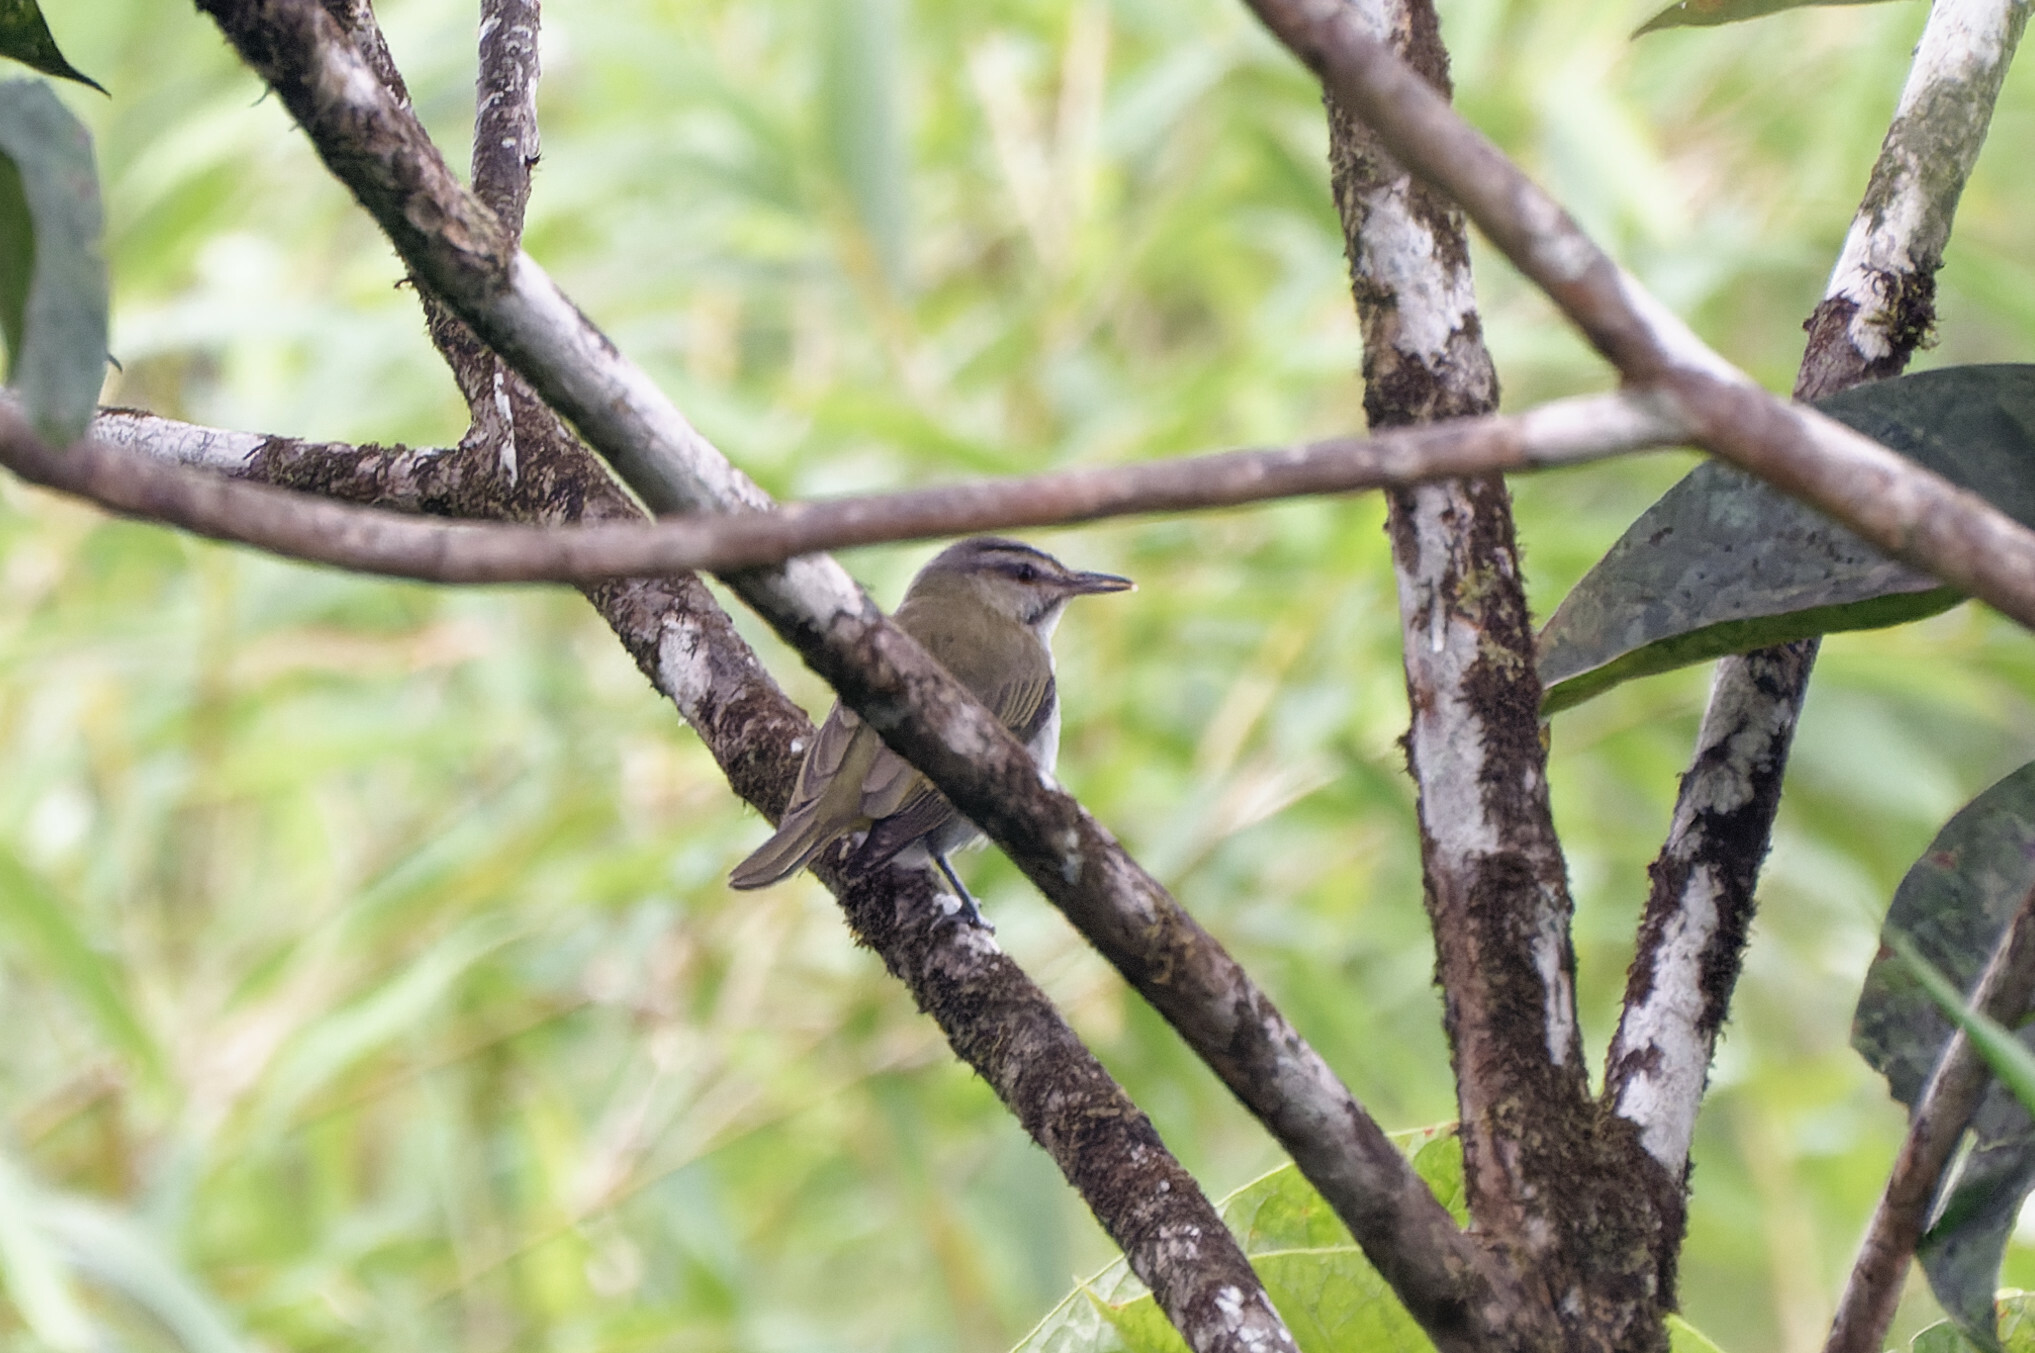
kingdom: Animalia
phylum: Chordata
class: Aves
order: Passeriformes
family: Vireonidae
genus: Vireo
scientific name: Vireo altiloquus
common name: Black-whiskered vireo
